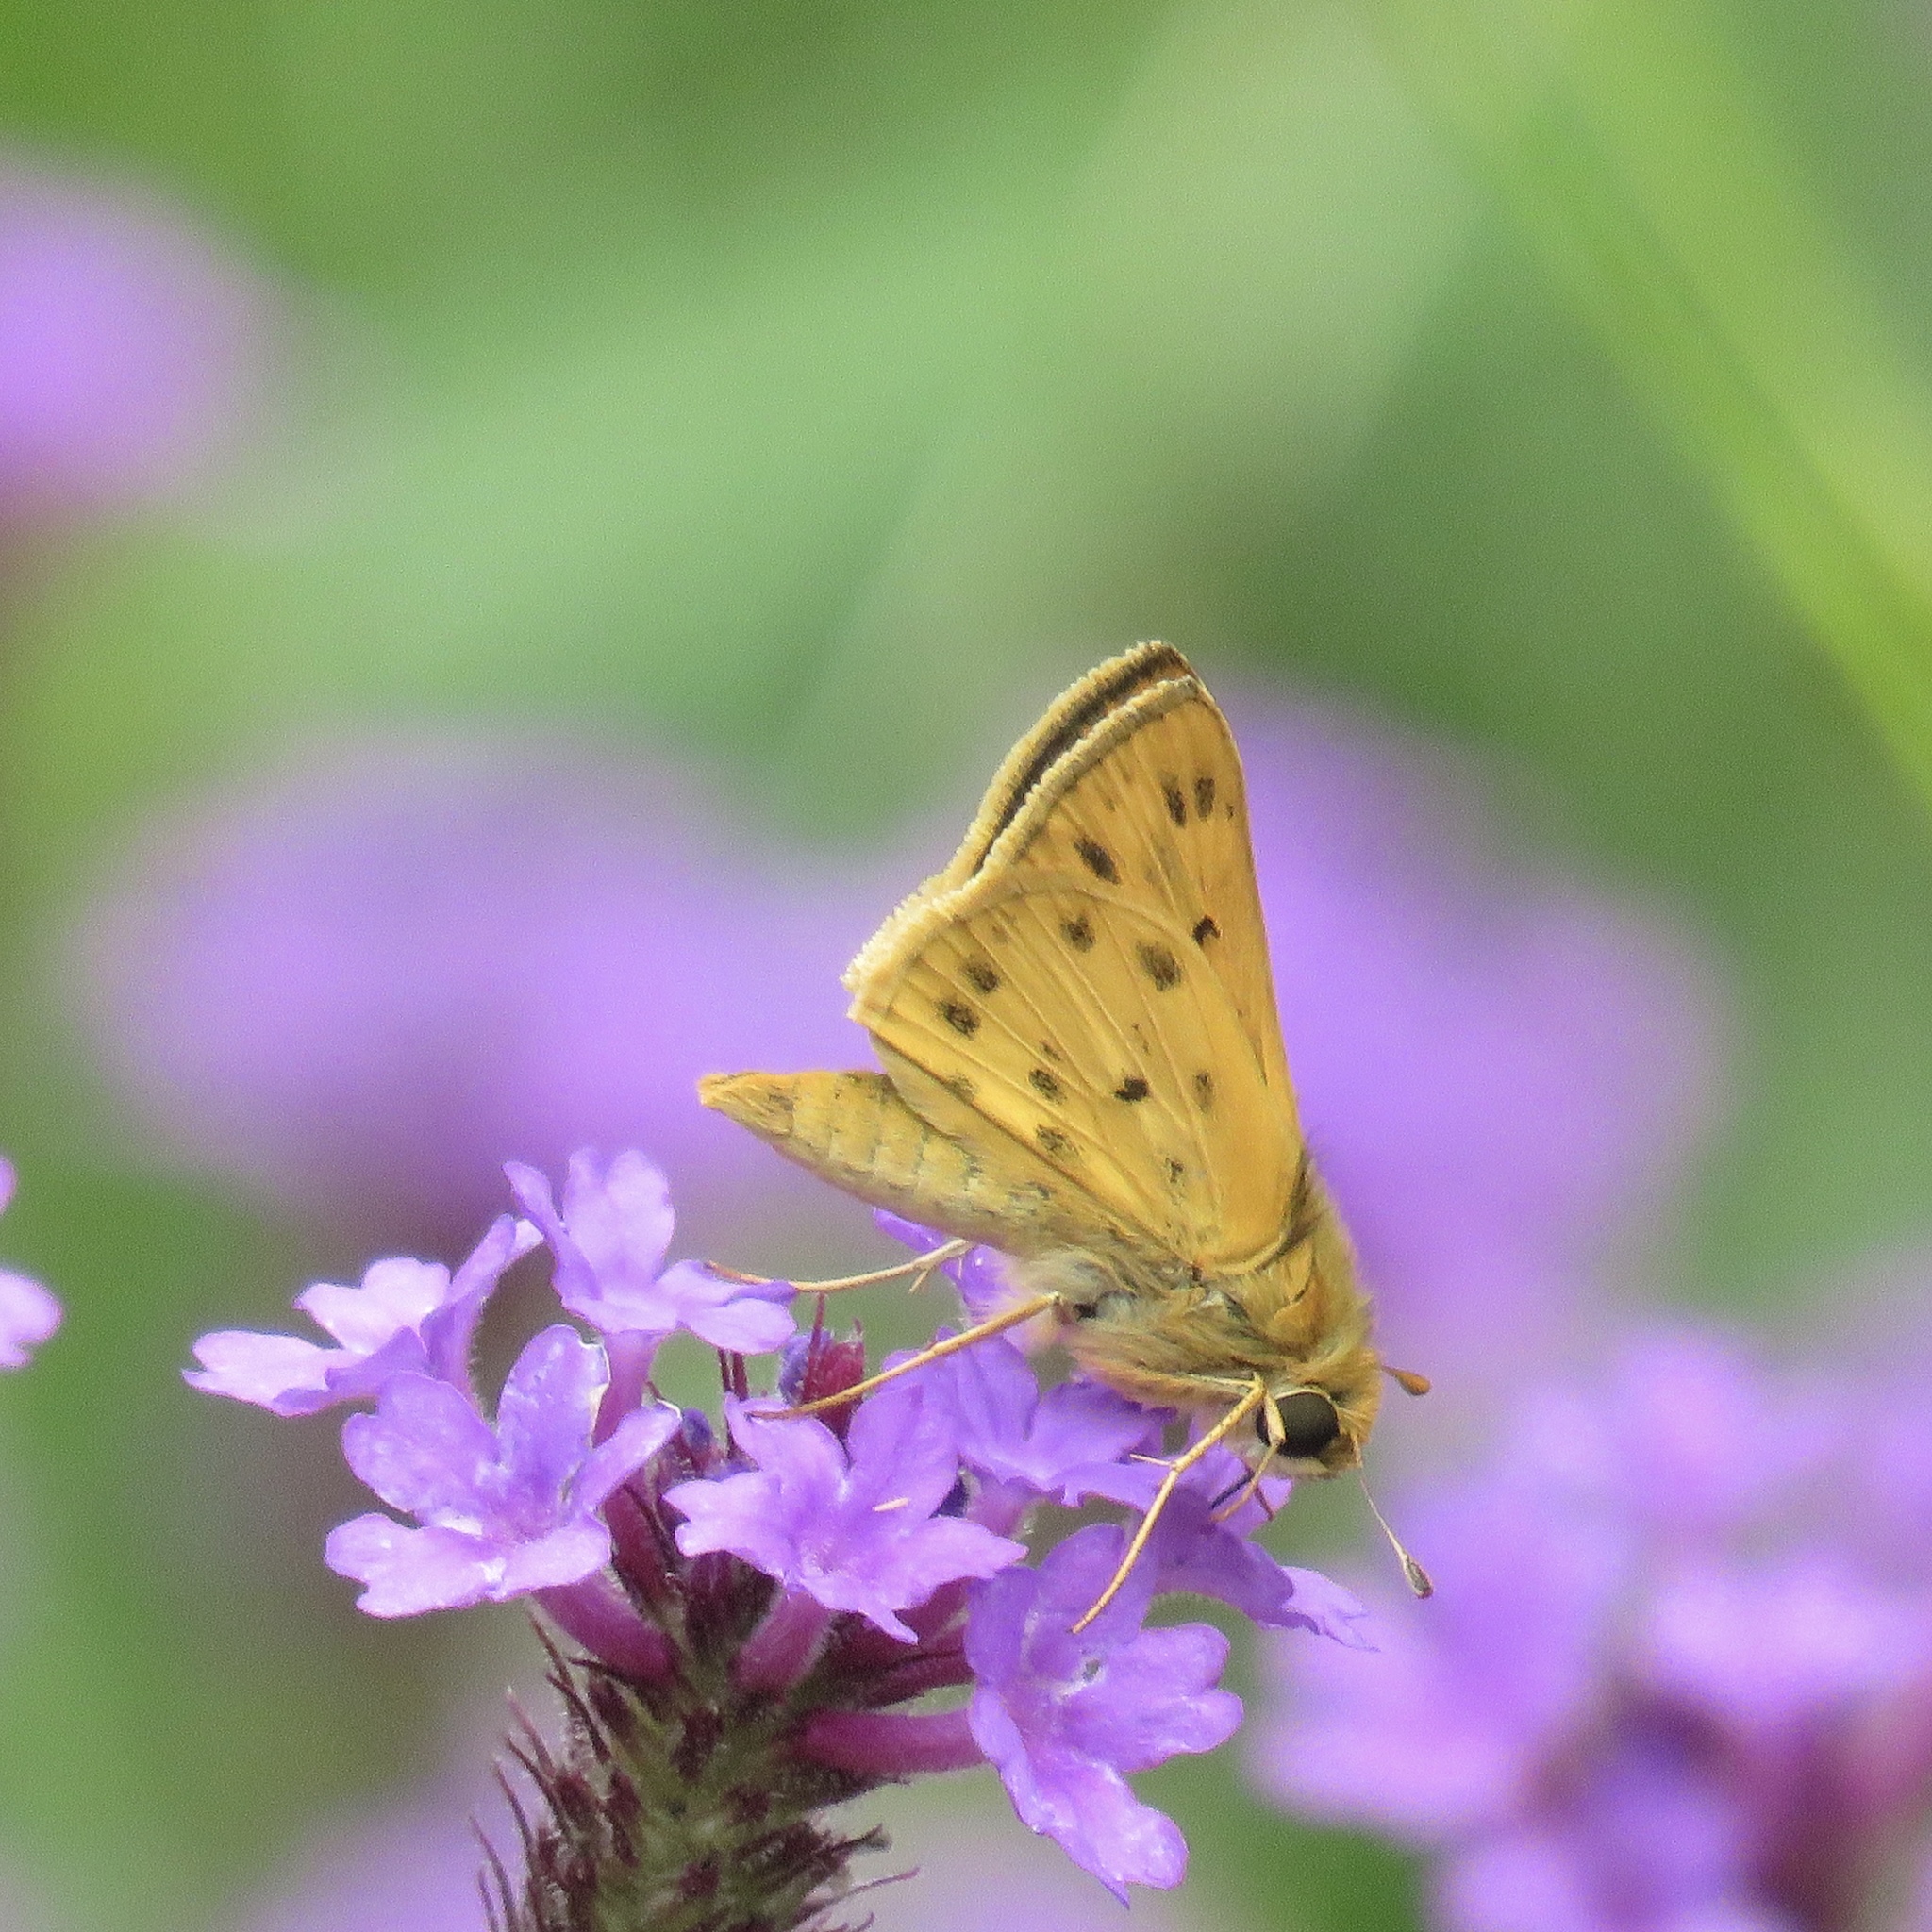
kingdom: Animalia
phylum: Arthropoda
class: Insecta
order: Lepidoptera
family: Hesperiidae
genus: Hylephila
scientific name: Hylephila phyleus
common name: Fiery skipper
